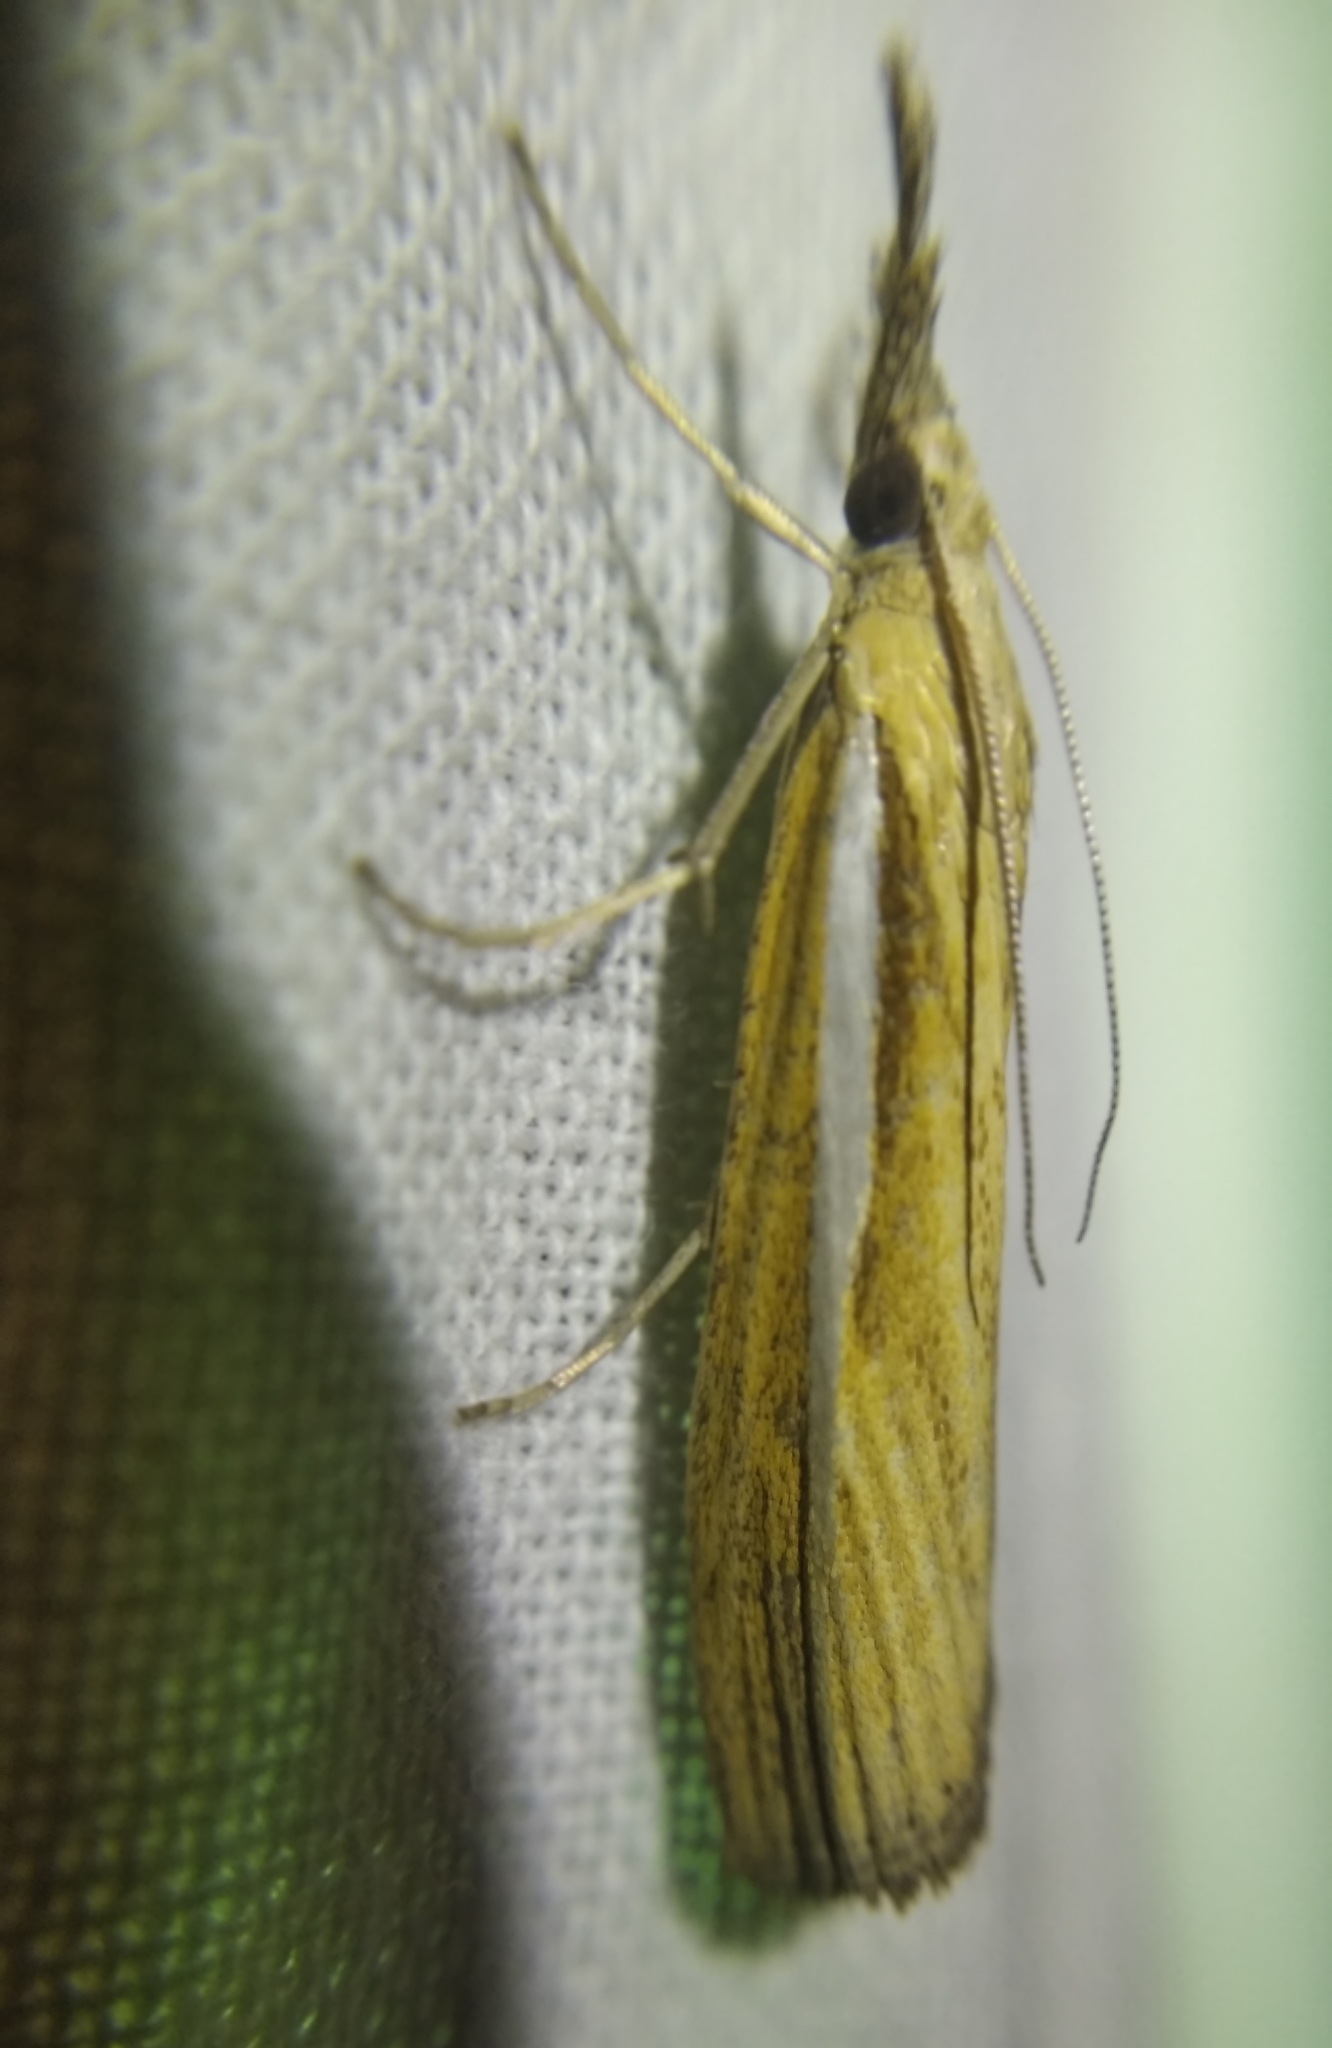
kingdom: Animalia
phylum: Arthropoda
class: Insecta
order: Lepidoptera
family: Crambidae
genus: Agriphila
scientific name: Agriphila tristellus
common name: Common grass-veneer
